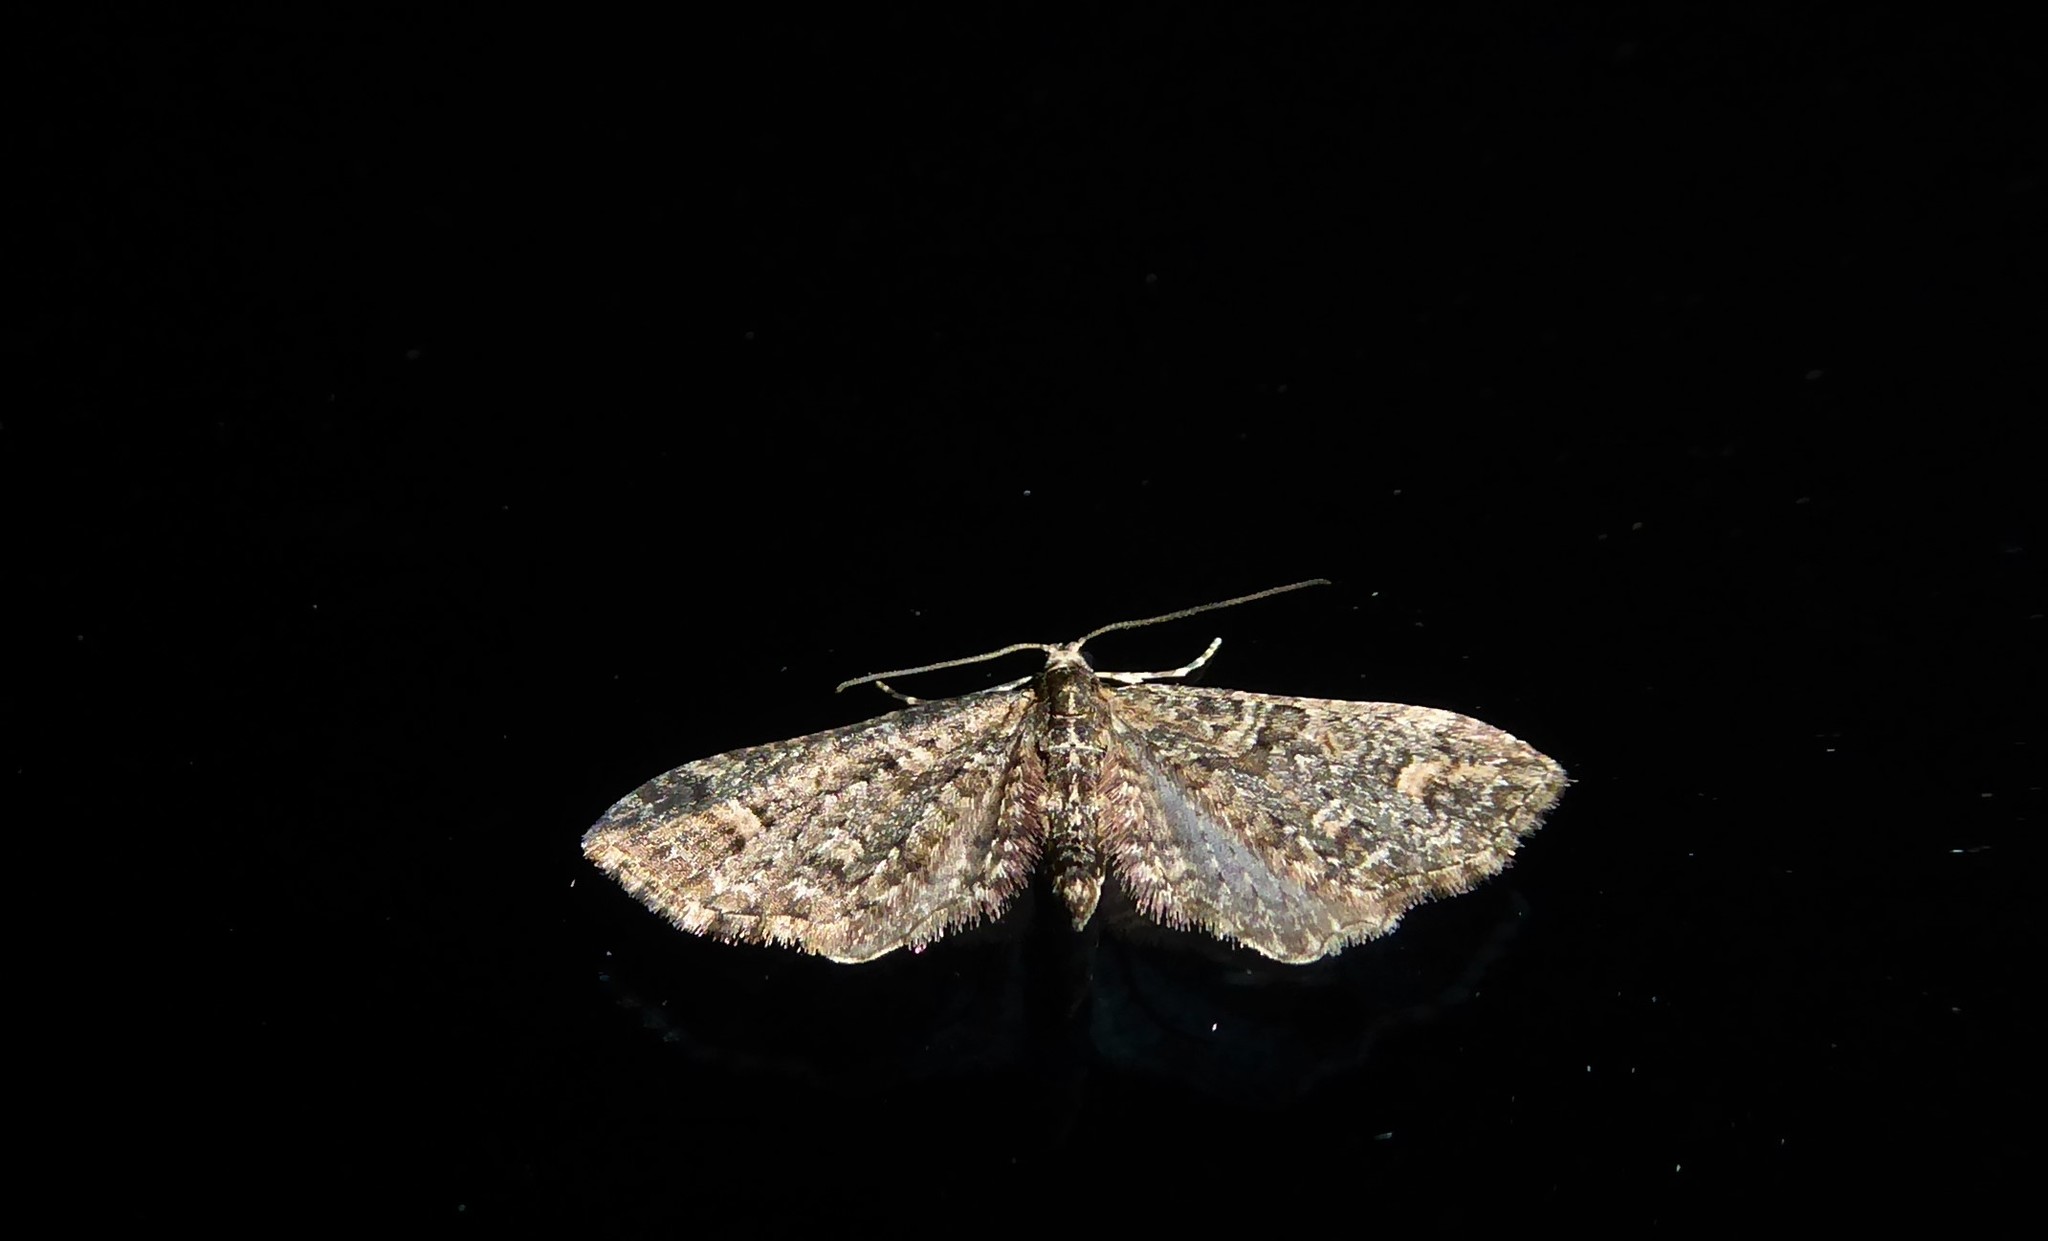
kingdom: Animalia
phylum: Arthropoda
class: Insecta
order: Lepidoptera
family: Geometridae
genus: Idaea
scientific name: Idaea mutanda
